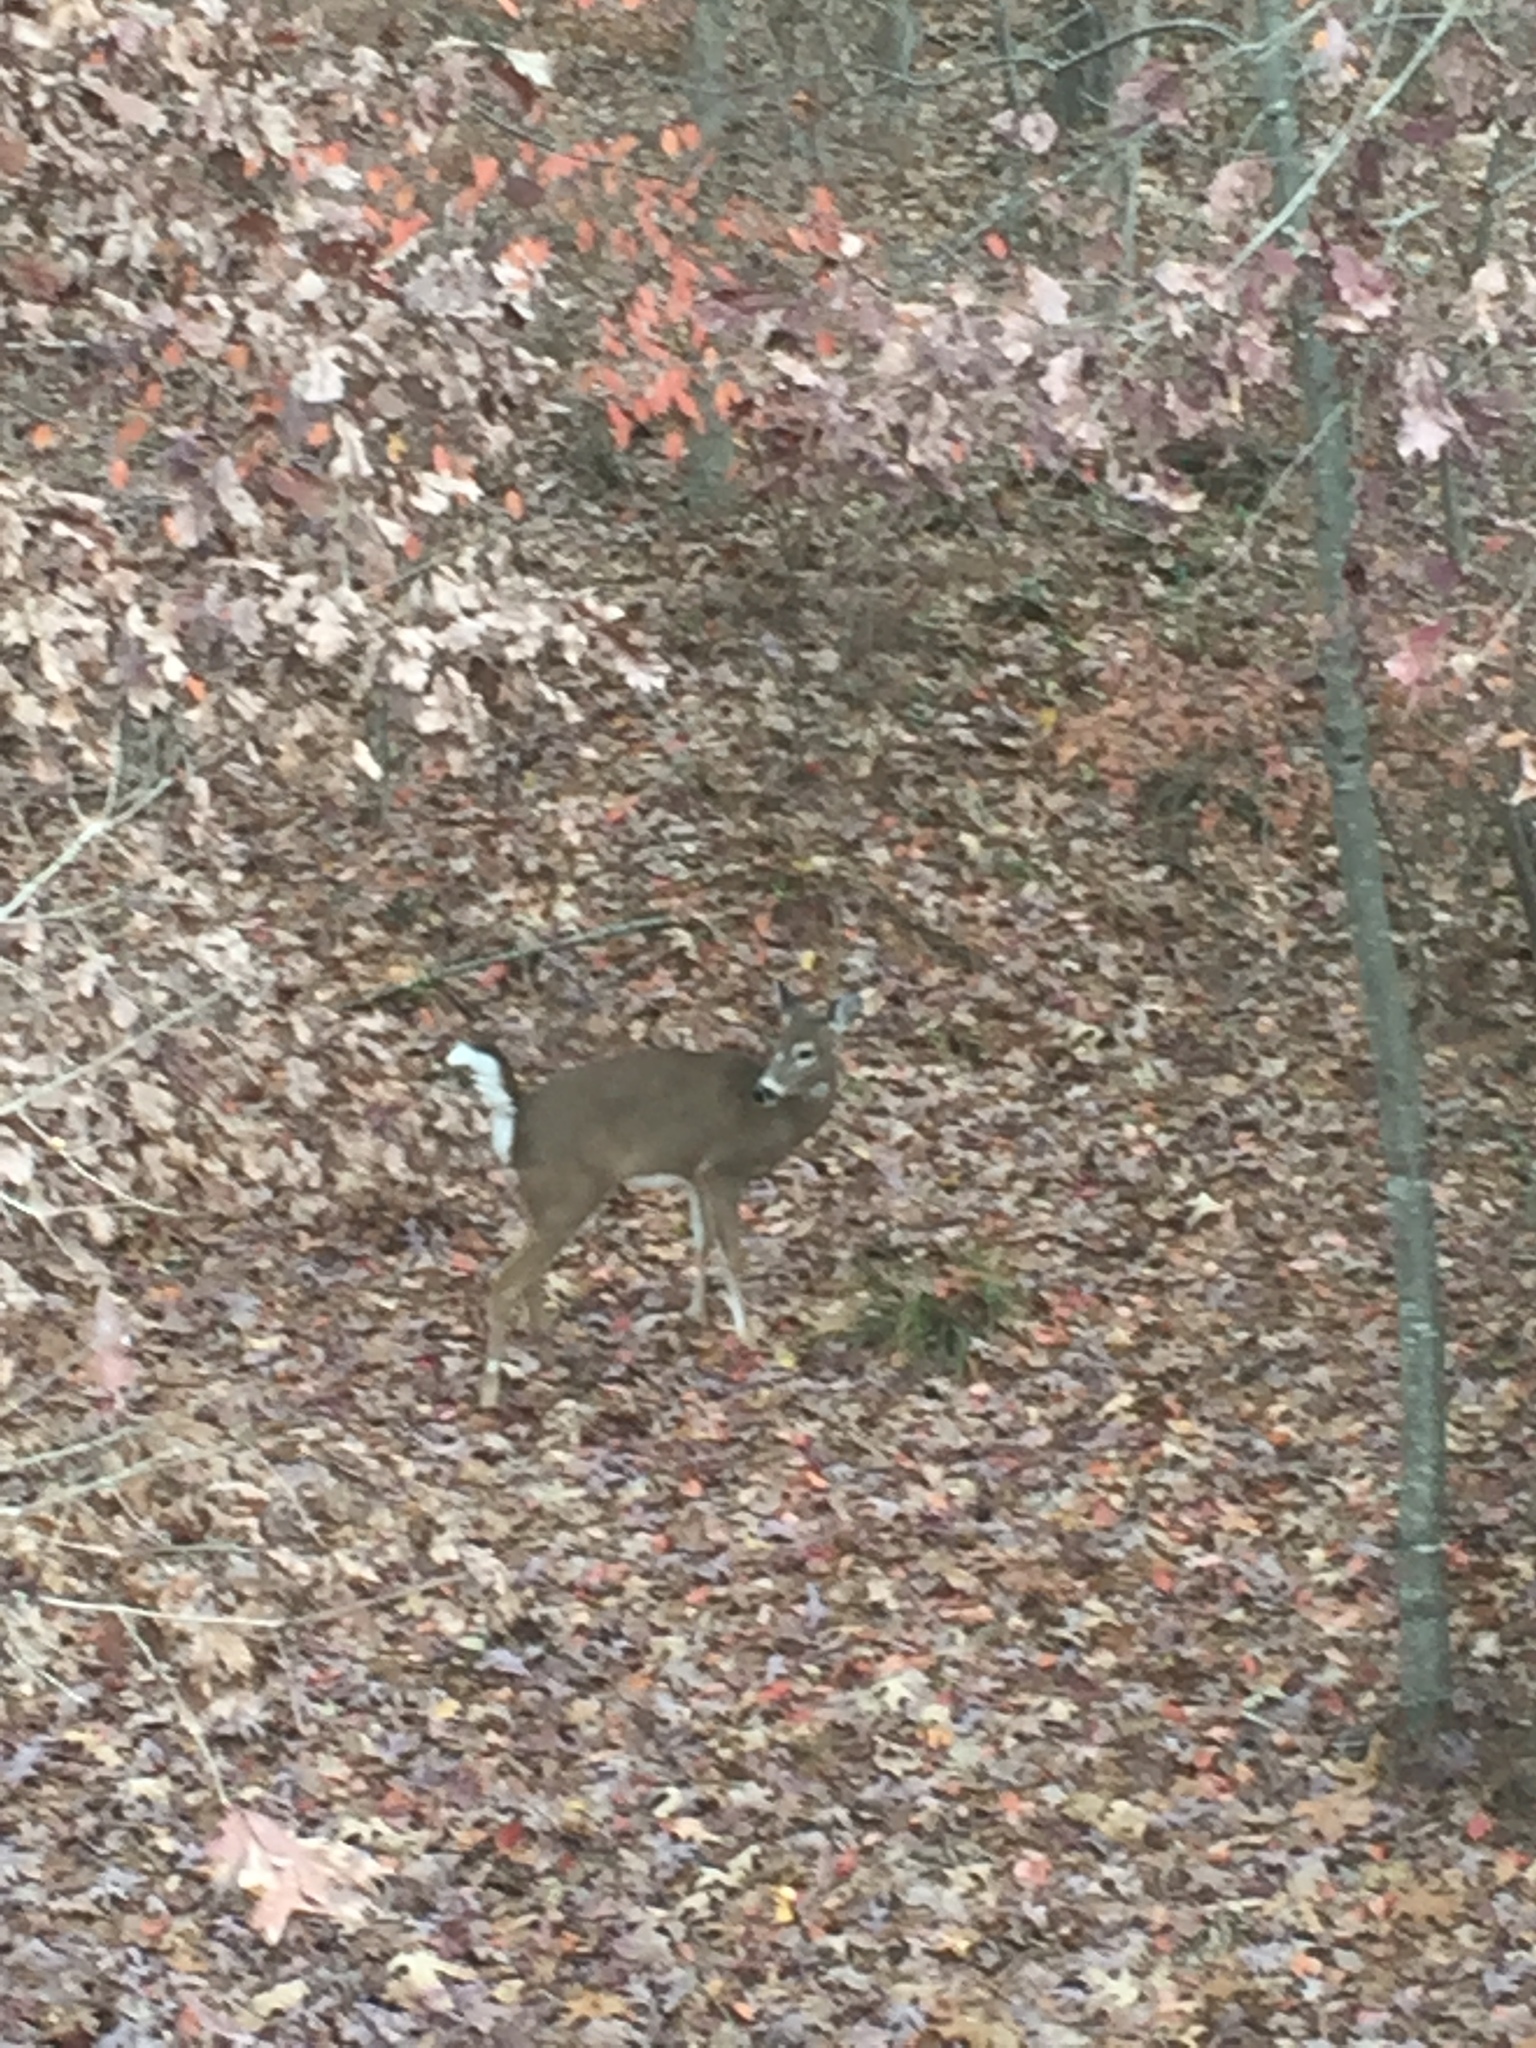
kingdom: Animalia
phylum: Chordata
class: Mammalia
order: Artiodactyla
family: Cervidae
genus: Odocoileus
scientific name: Odocoileus virginianus
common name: White-tailed deer
